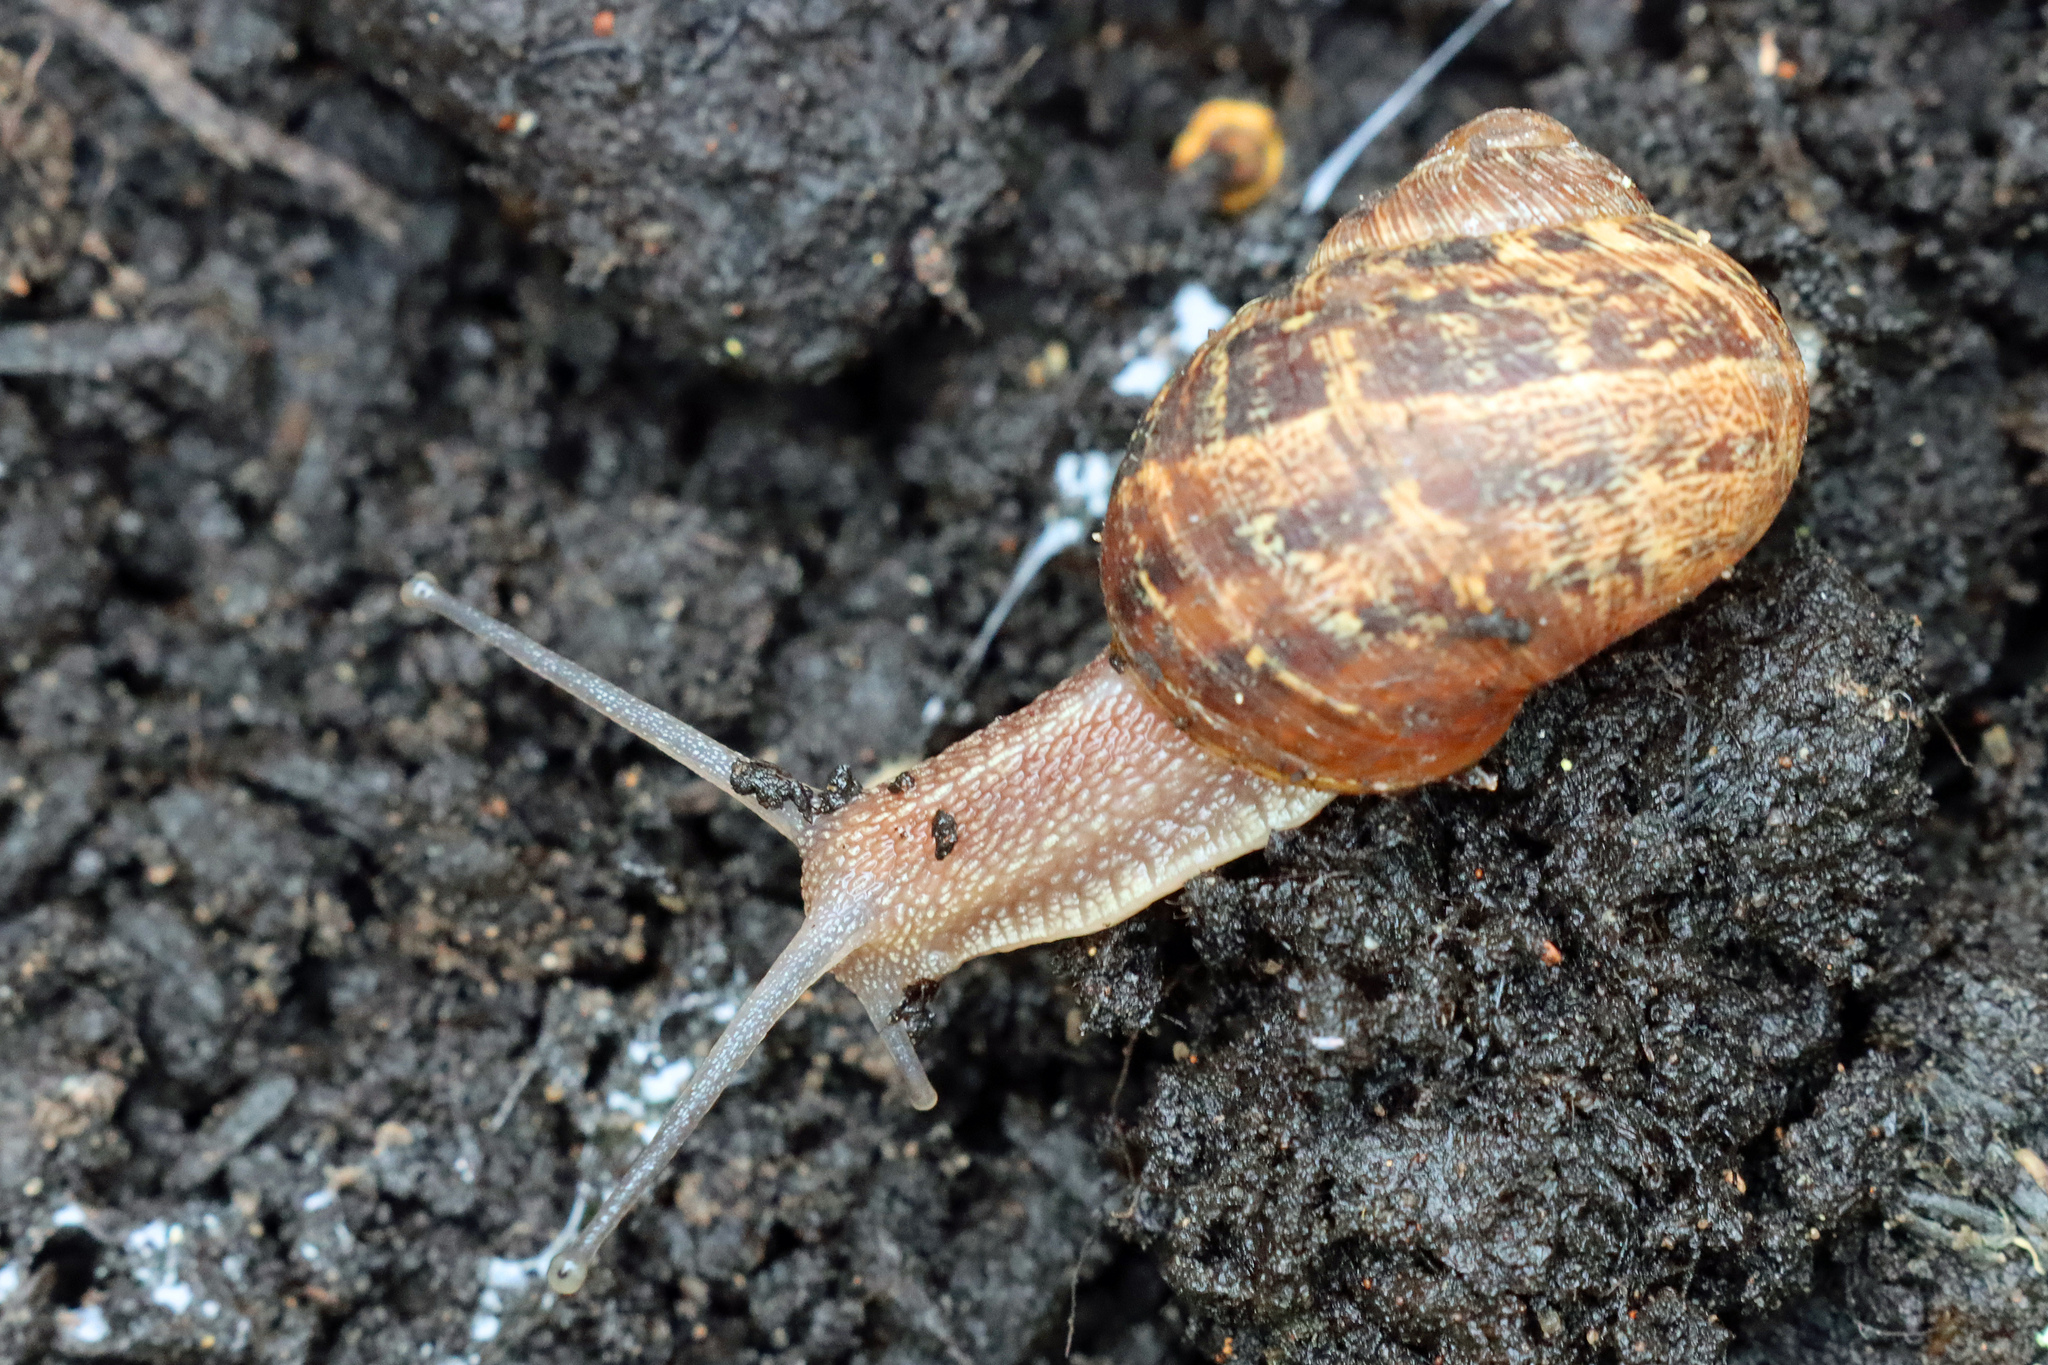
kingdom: Animalia
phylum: Mollusca
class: Gastropoda
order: Stylommatophora
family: Helicidae
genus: Cornu
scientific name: Cornu aspersum
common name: Brown garden snail
